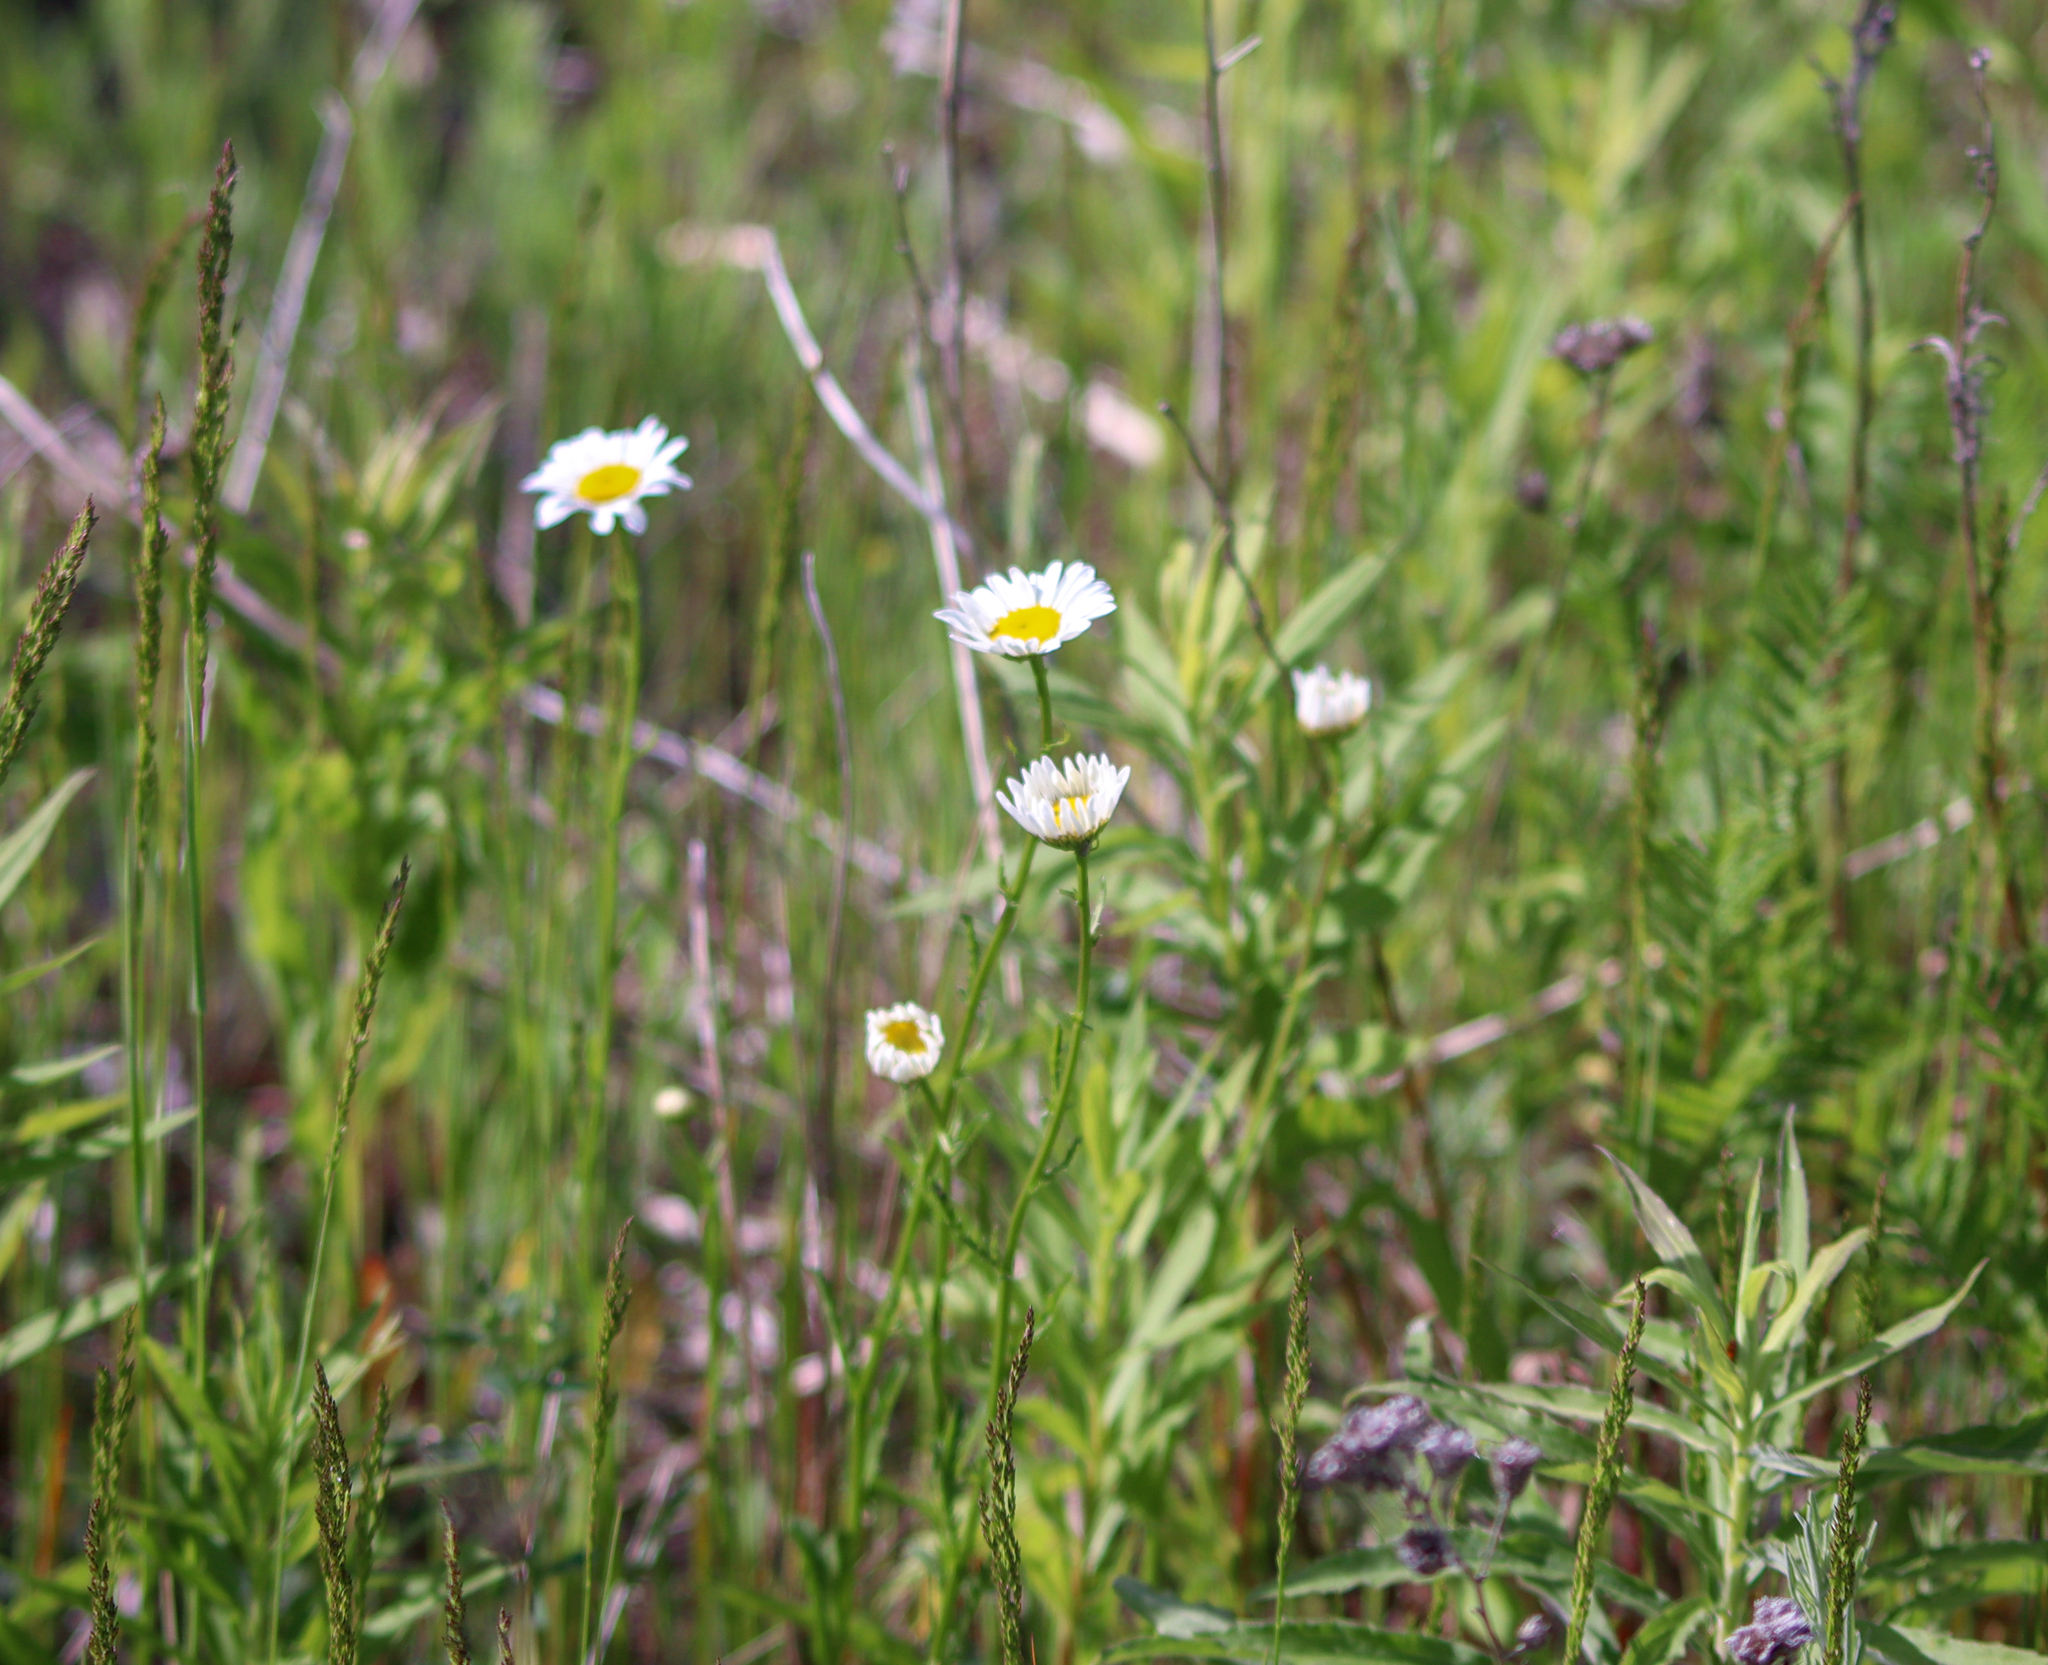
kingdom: Plantae
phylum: Tracheophyta
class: Magnoliopsida
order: Asterales
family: Asteraceae
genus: Leucanthemum
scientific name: Leucanthemum vulgare
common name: Oxeye daisy
